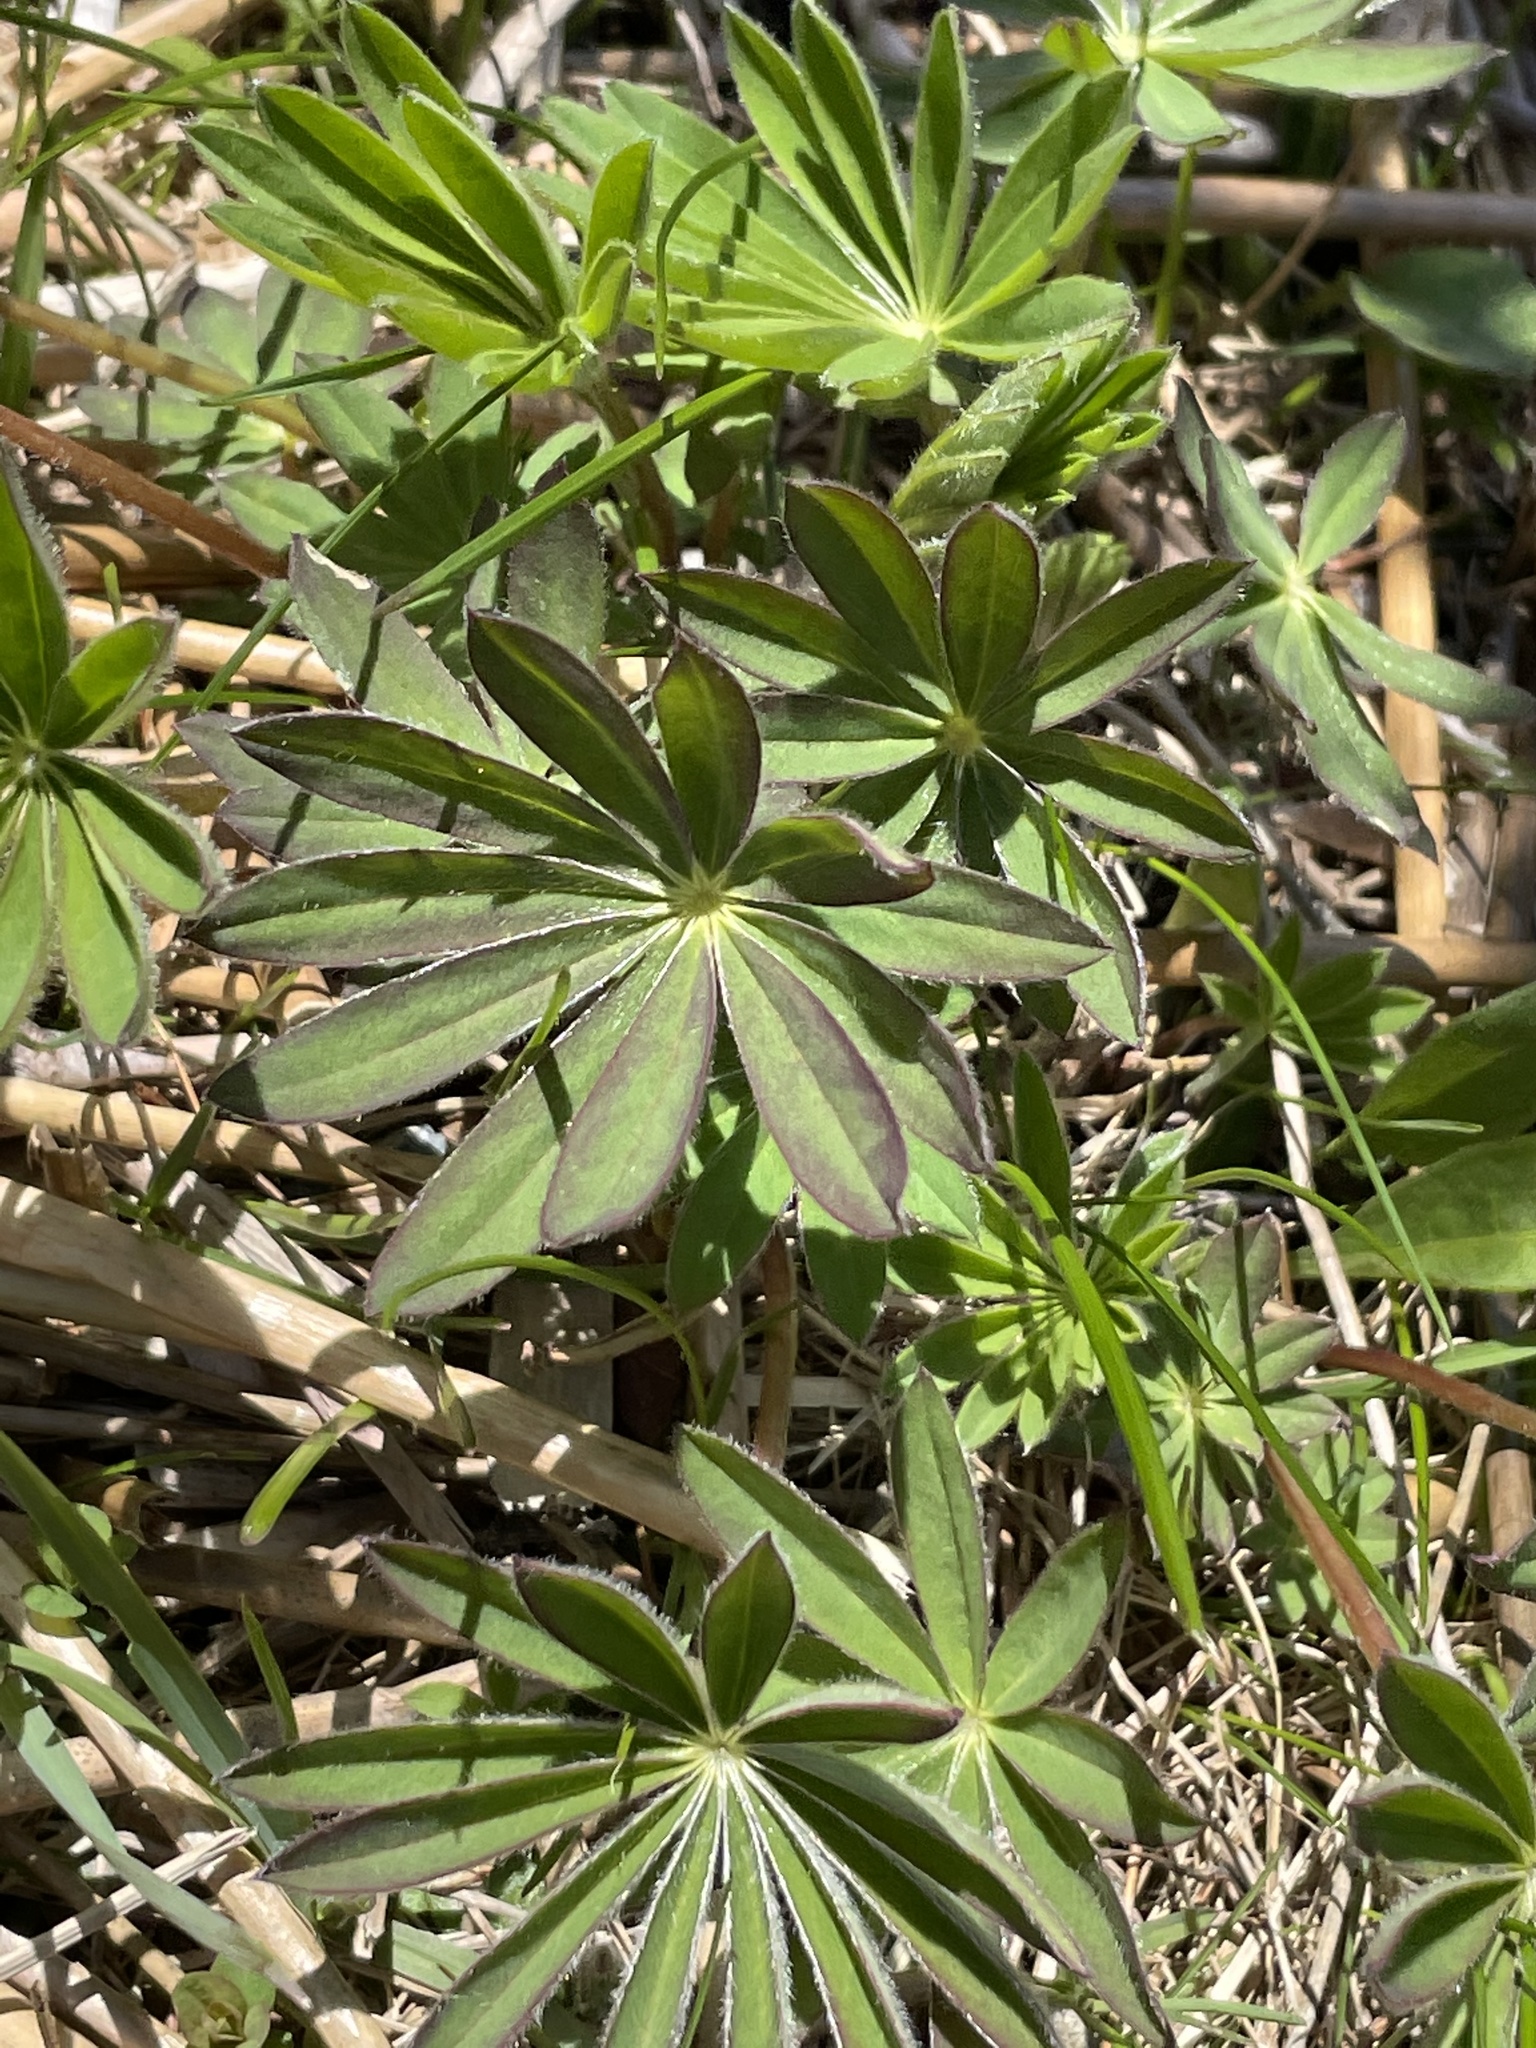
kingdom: Plantae
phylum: Tracheophyta
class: Magnoliopsida
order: Fabales
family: Fabaceae
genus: Lupinus
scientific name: Lupinus polyphyllus
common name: Garden lupin
